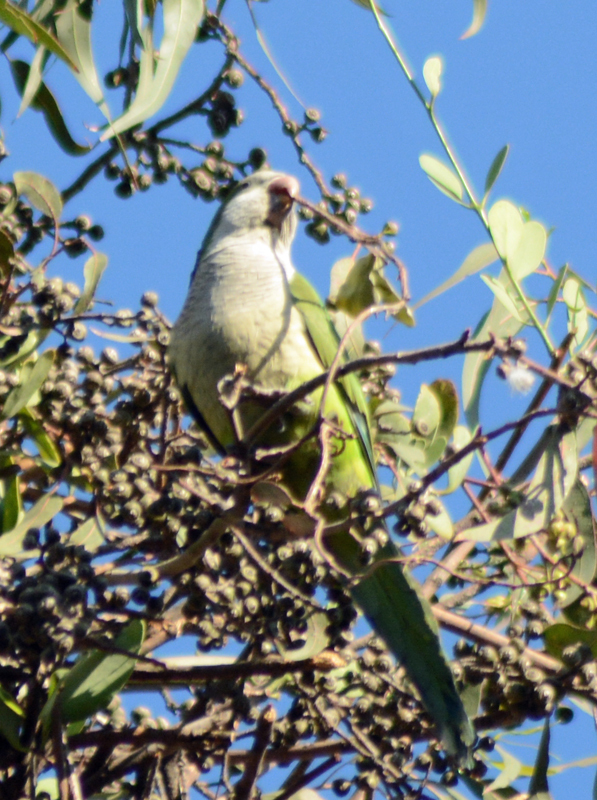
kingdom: Animalia
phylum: Chordata
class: Aves
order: Psittaciformes
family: Psittacidae
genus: Myiopsitta
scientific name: Myiopsitta monachus
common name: Monk parakeet
